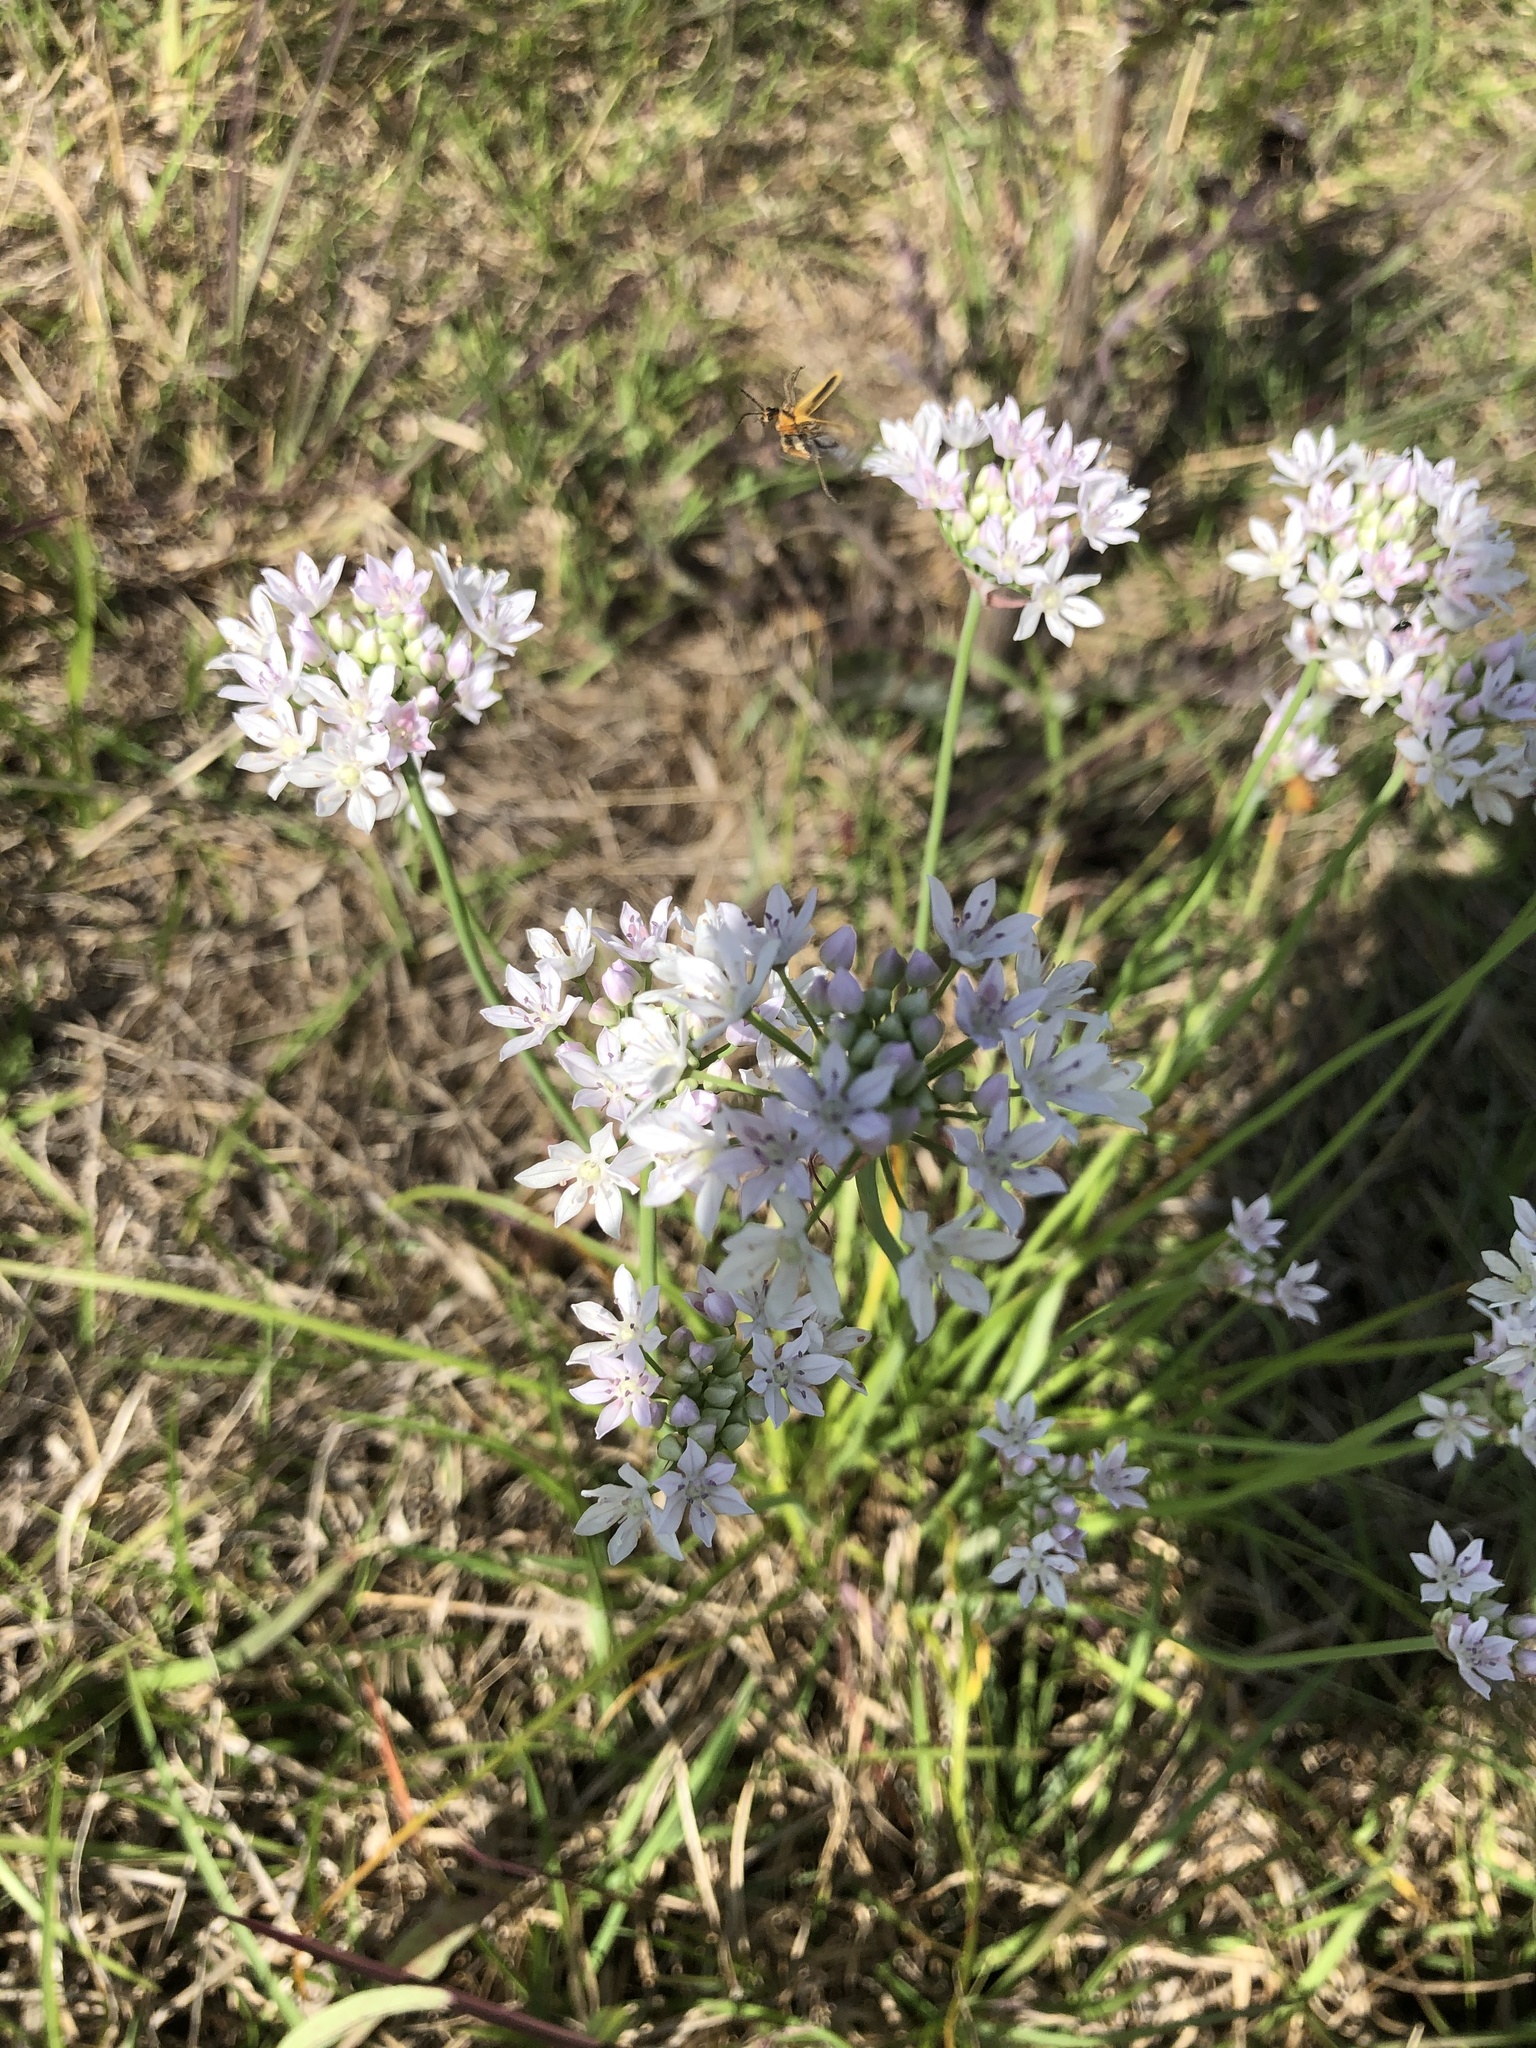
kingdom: Plantae
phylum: Tracheophyta
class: Liliopsida
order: Asparagales
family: Amaryllidaceae
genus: Allium
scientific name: Allium canadense
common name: Meadow garlic
